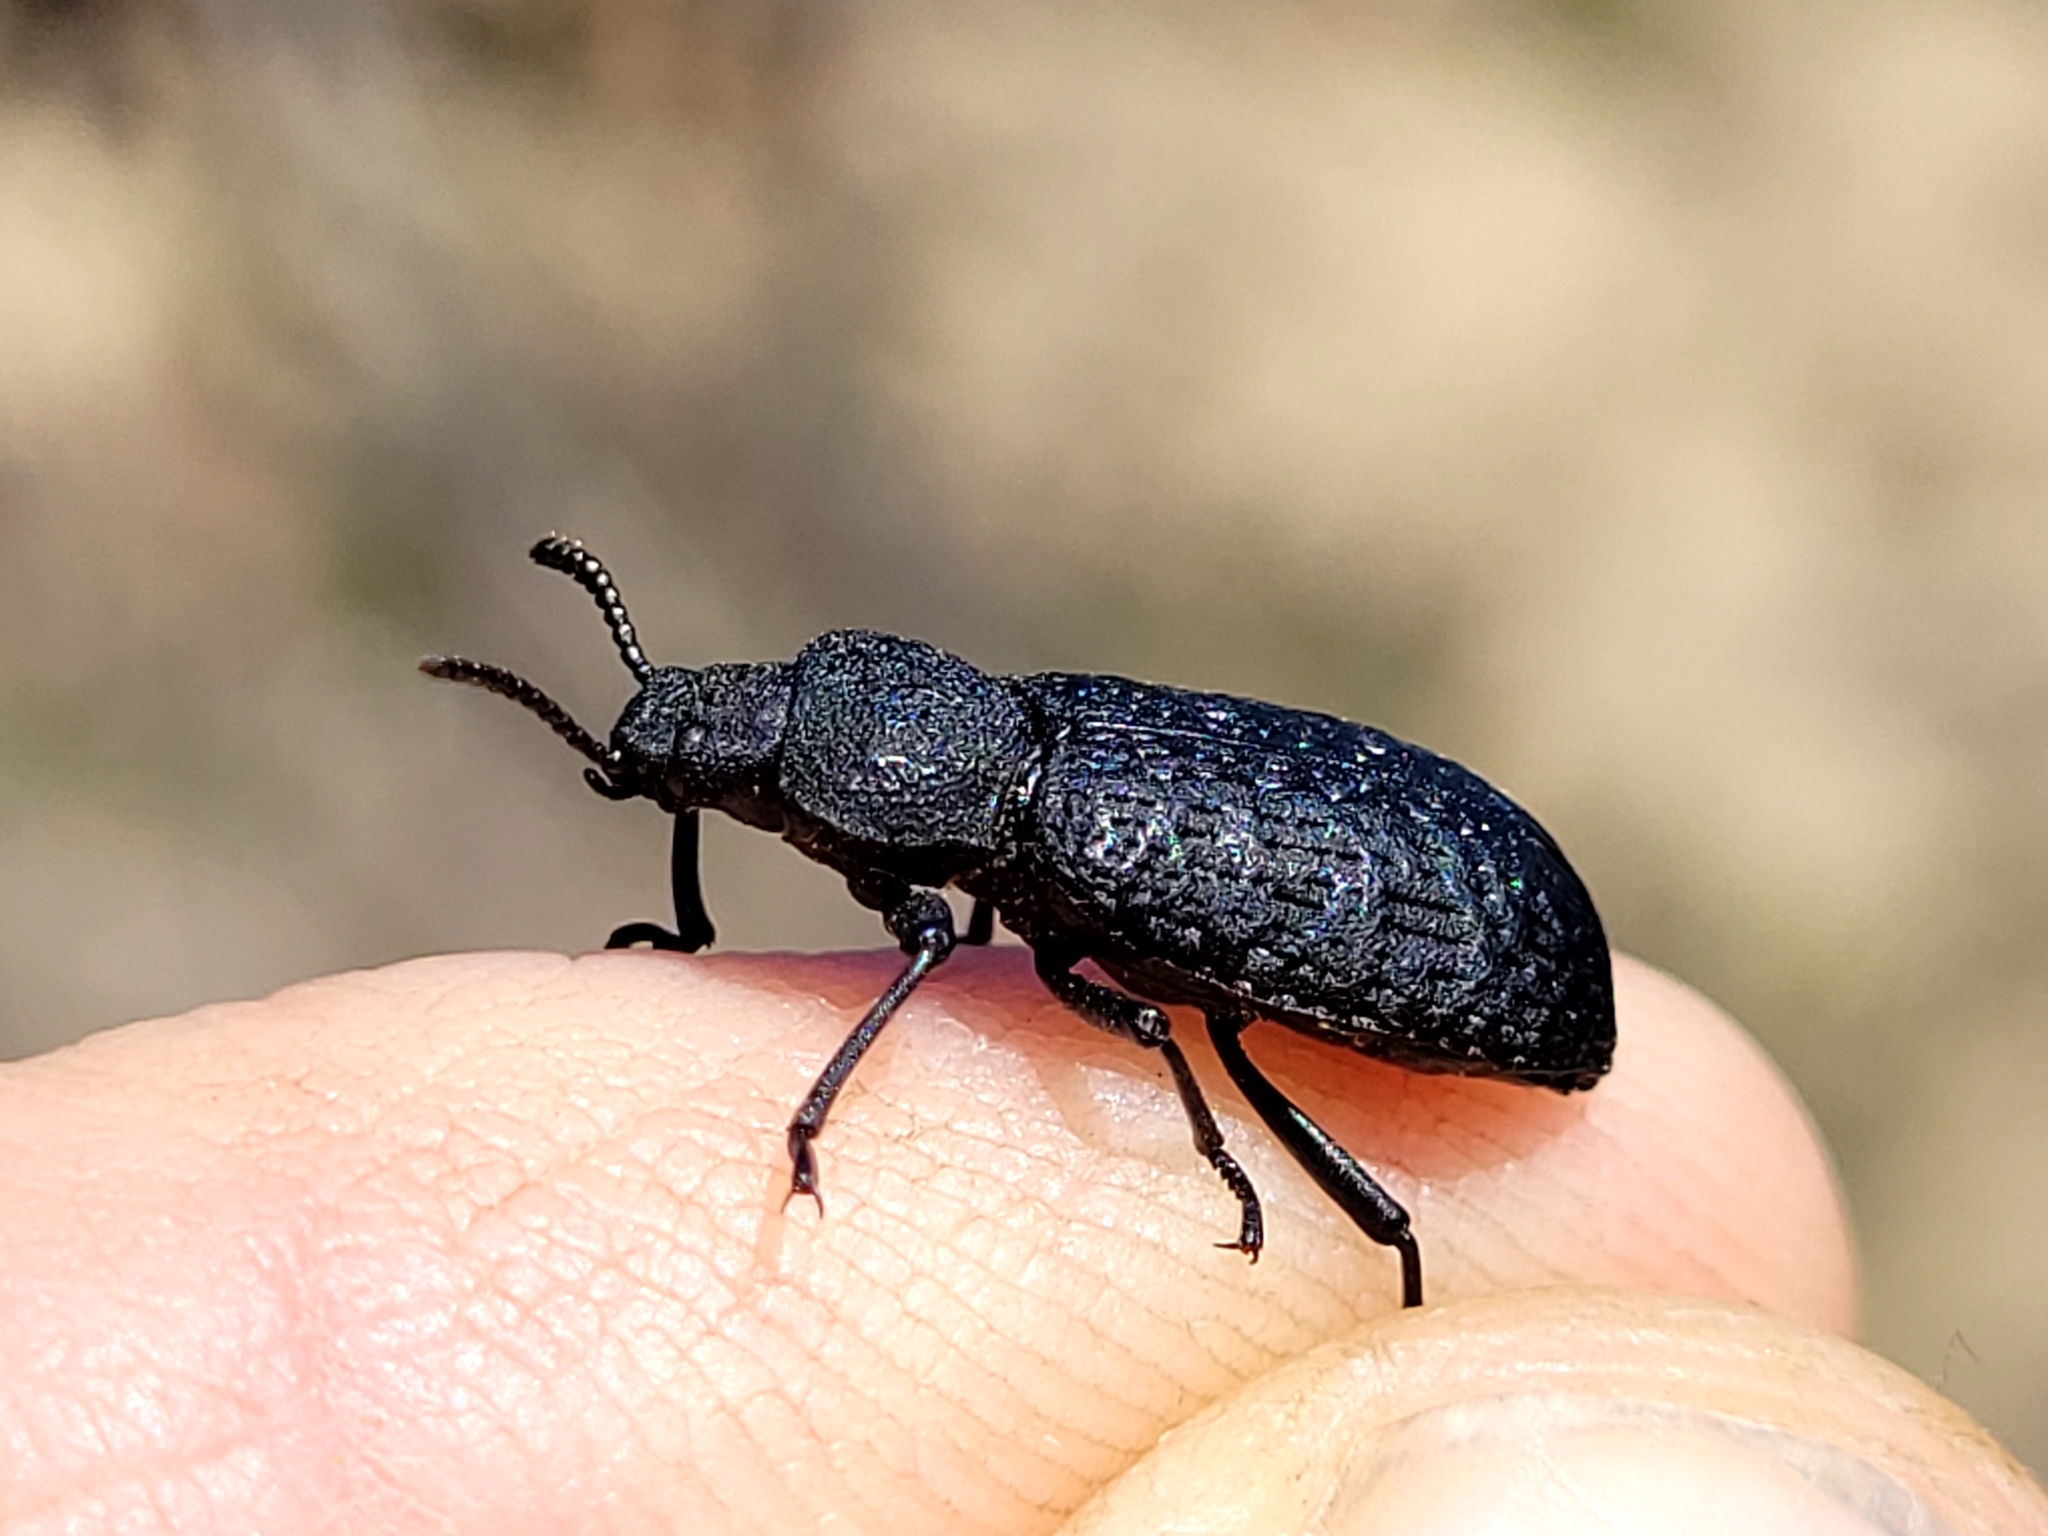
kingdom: Animalia
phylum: Arthropoda
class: Insecta
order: Coleoptera
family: Tenebrionidae
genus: Iphthiminus
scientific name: Iphthiminus opacus
